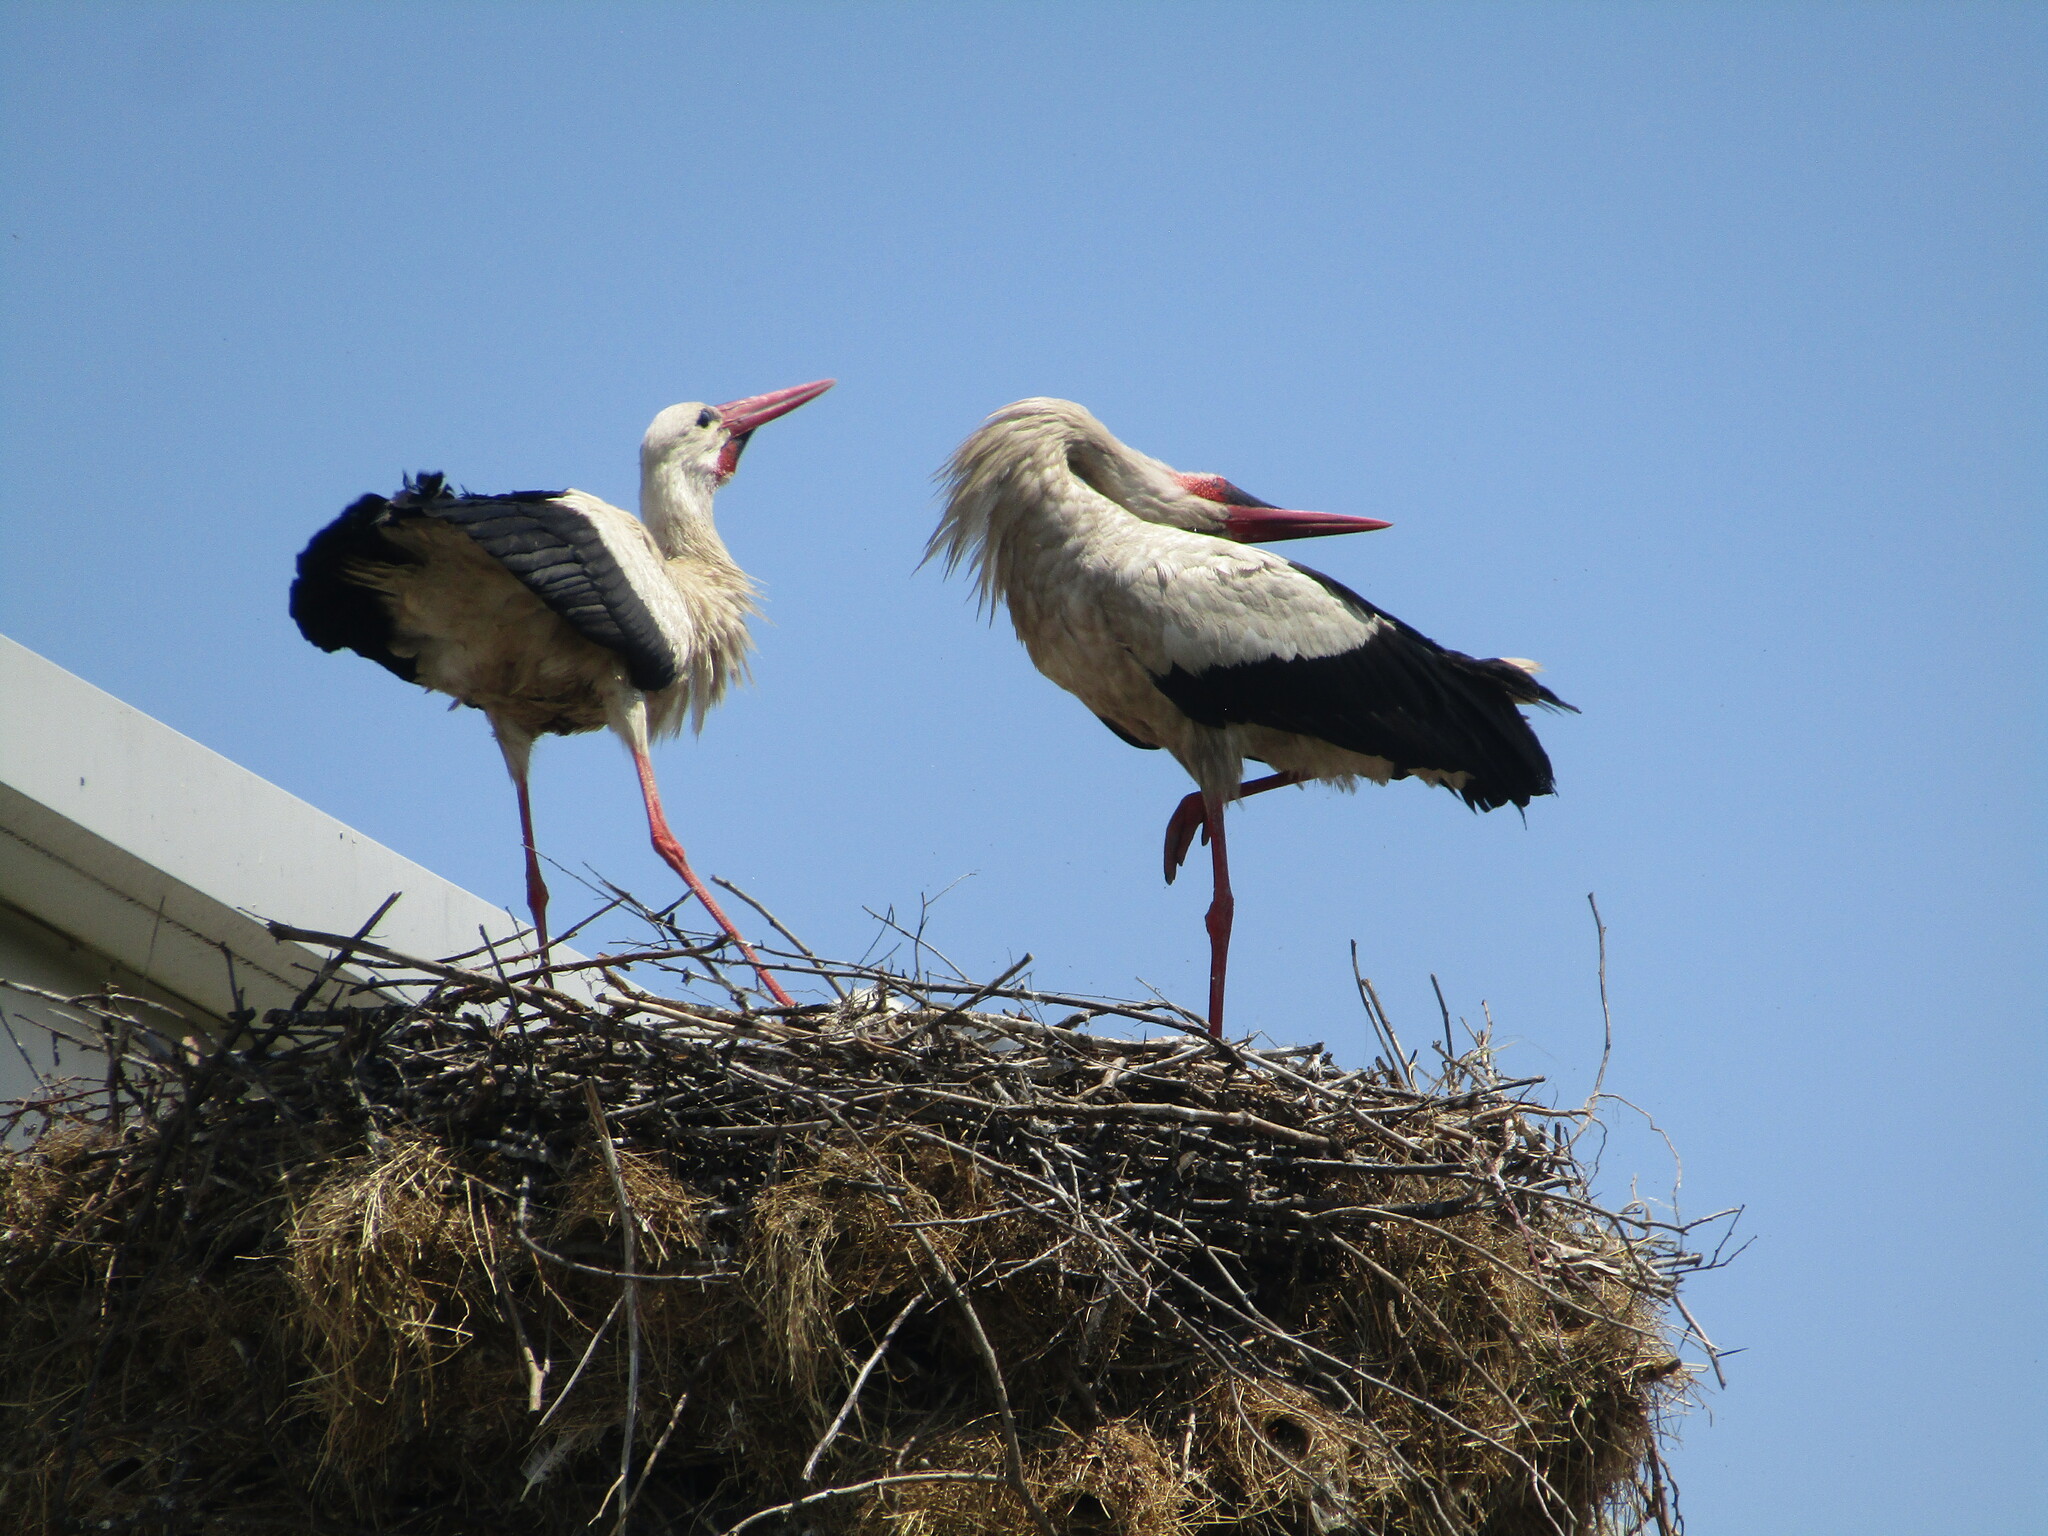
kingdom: Animalia
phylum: Chordata
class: Aves
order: Ciconiiformes
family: Ciconiidae
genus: Ciconia
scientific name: Ciconia ciconia
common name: White stork
